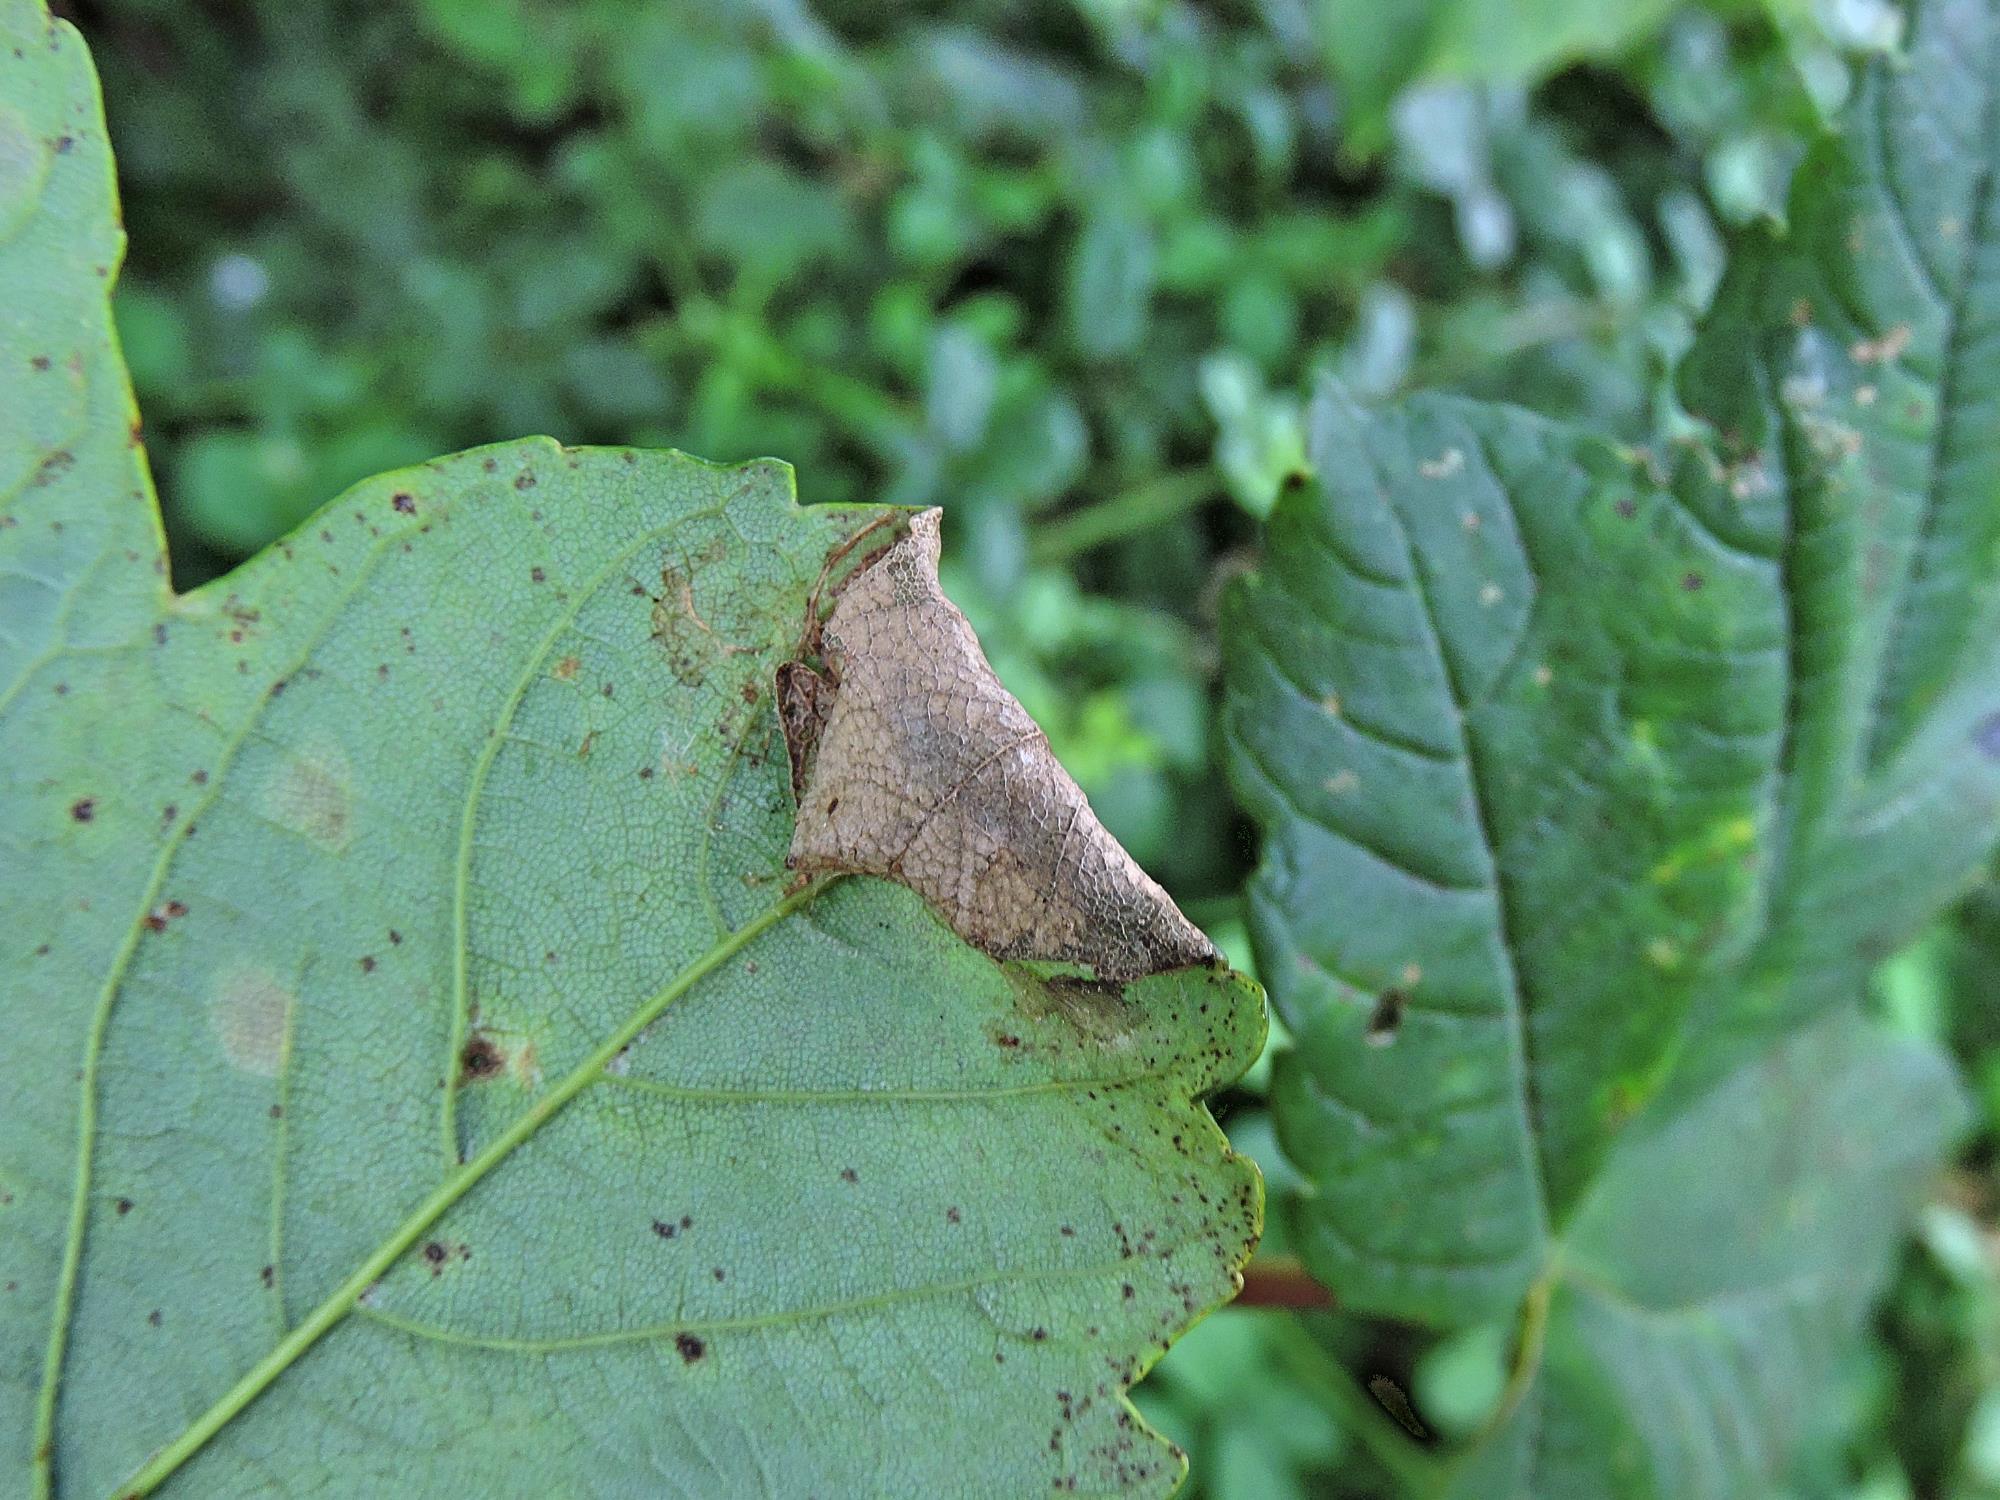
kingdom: Animalia
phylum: Arthropoda
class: Insecta
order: Lepidoptera
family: Gracillariidae
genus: Caloptilia
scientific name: Caloptilia rufipennella
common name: Small red slender
